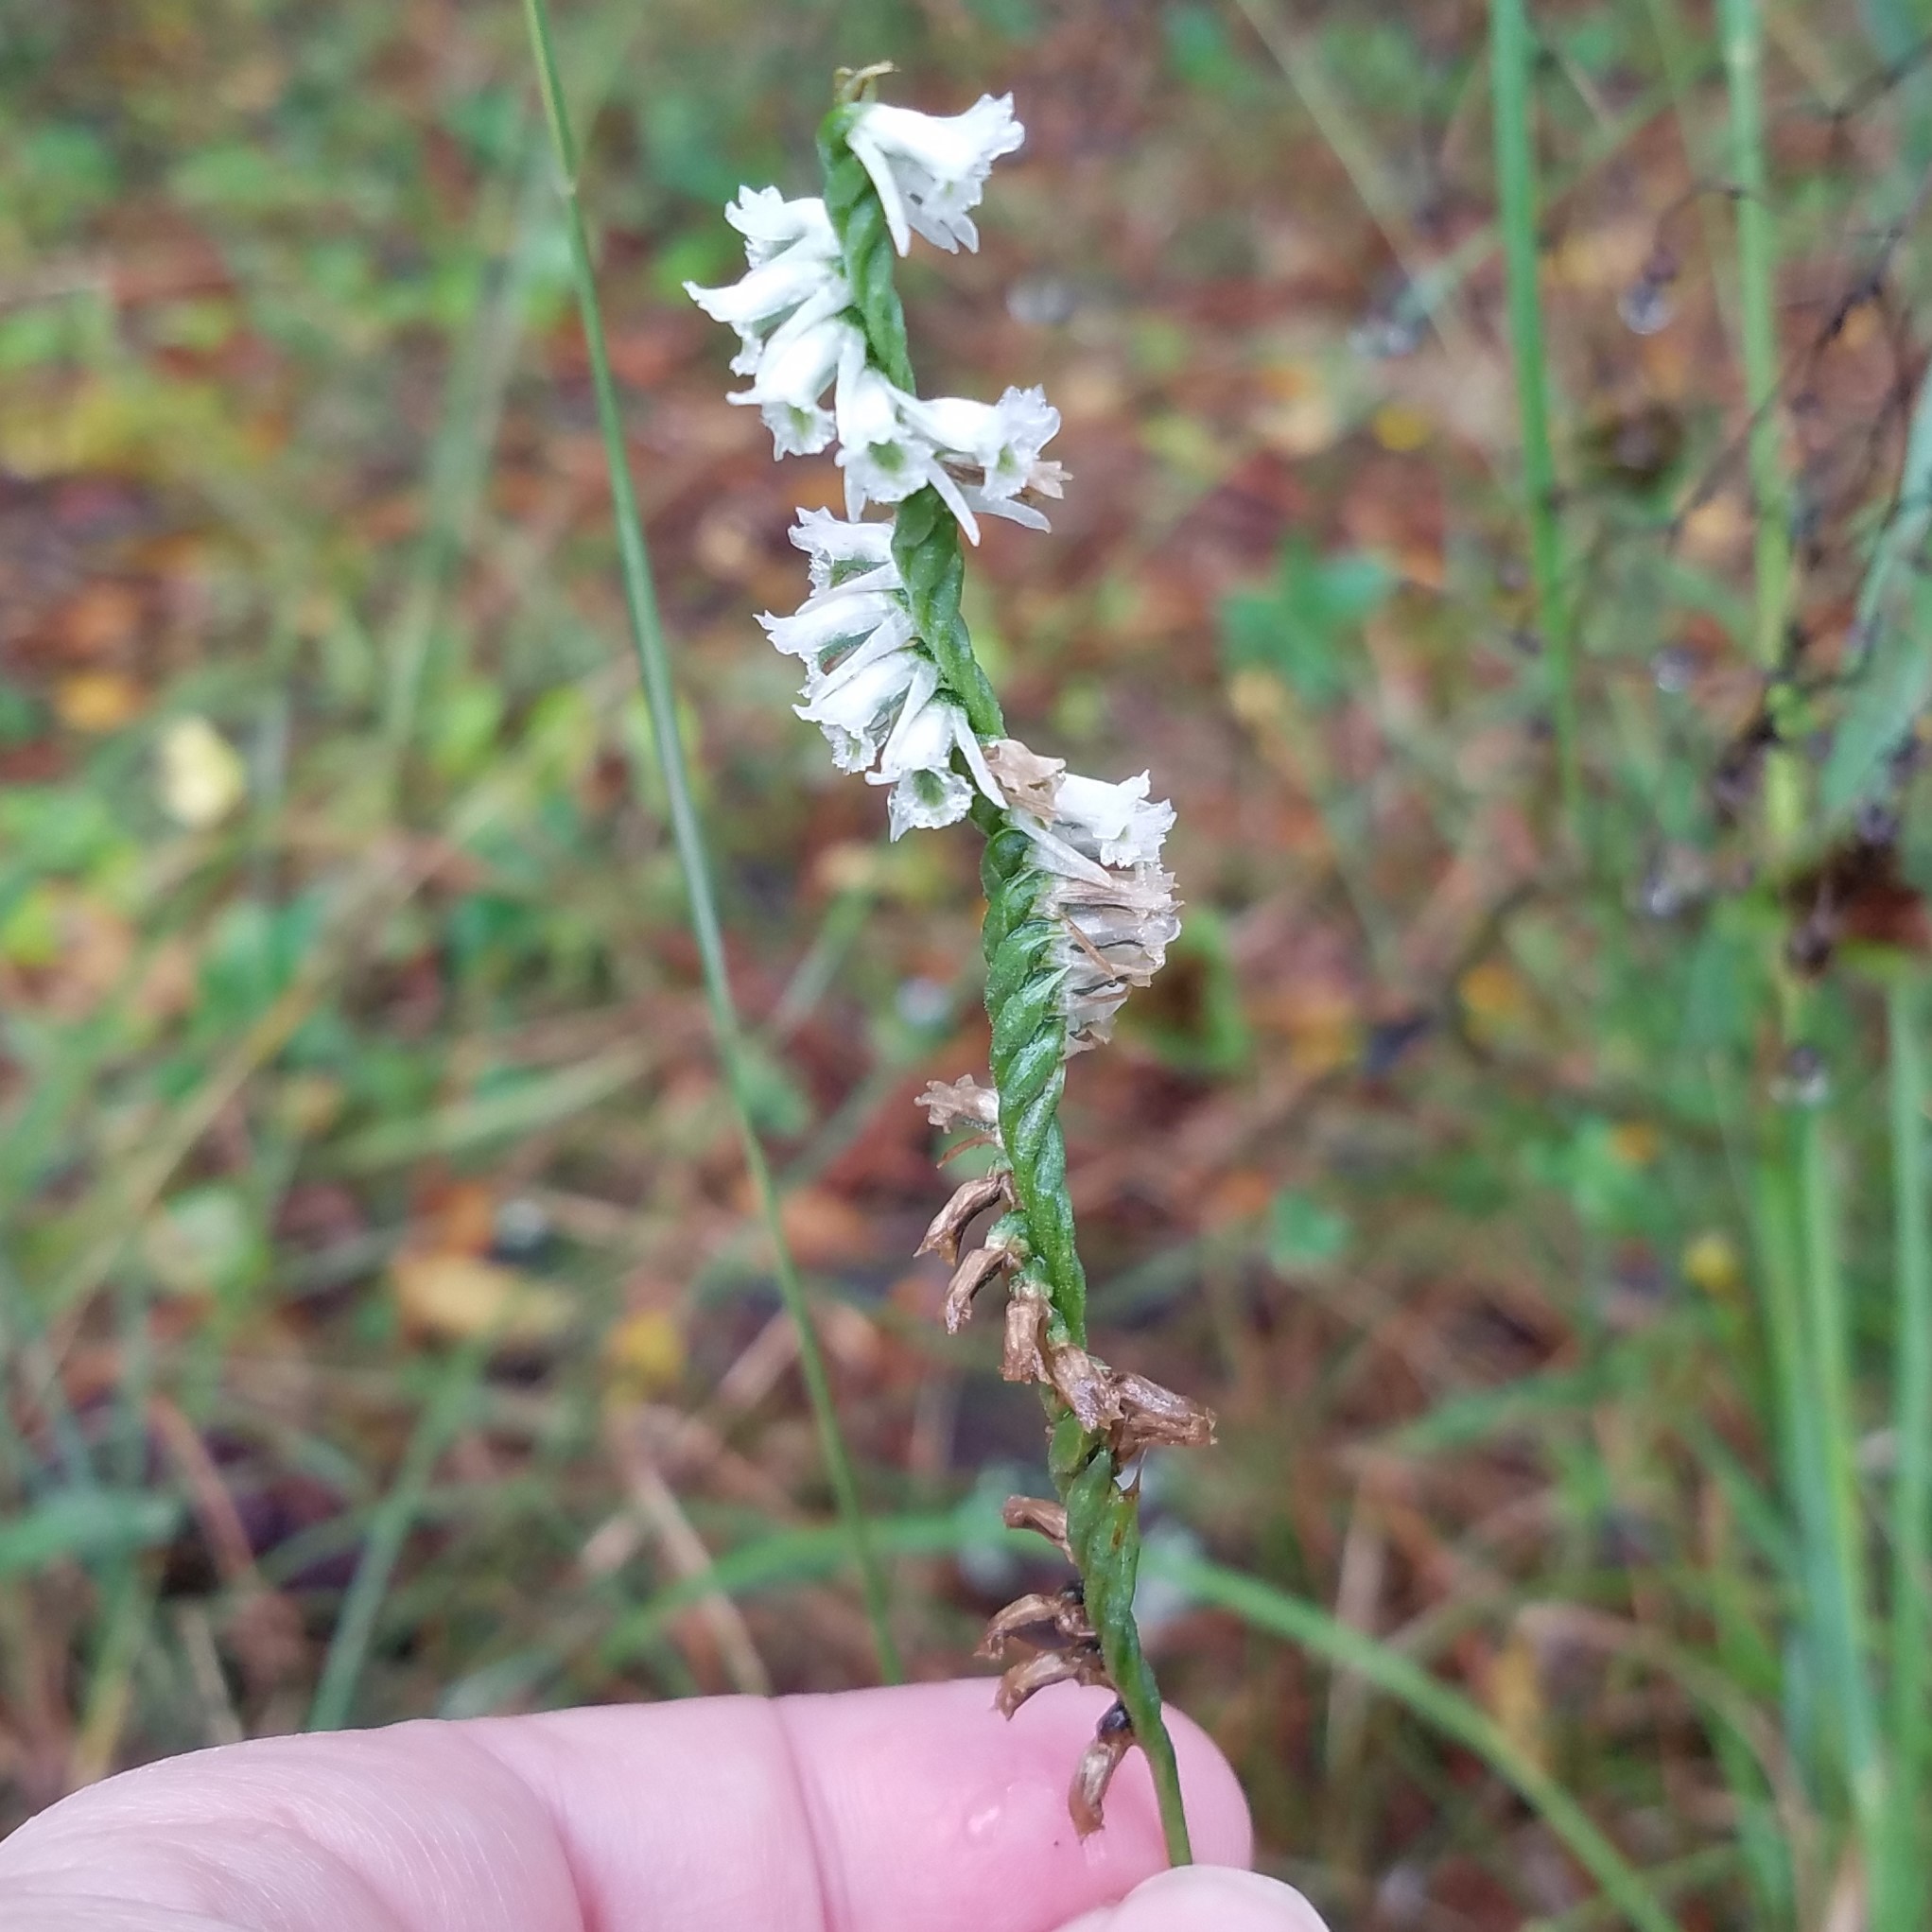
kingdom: Plantae
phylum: Tracheophyta
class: Liliopsida
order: Asparagales
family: Orchidaceae
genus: Spiranthes
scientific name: Spiranthes lacera
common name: Northern slender ladies'-tresses
